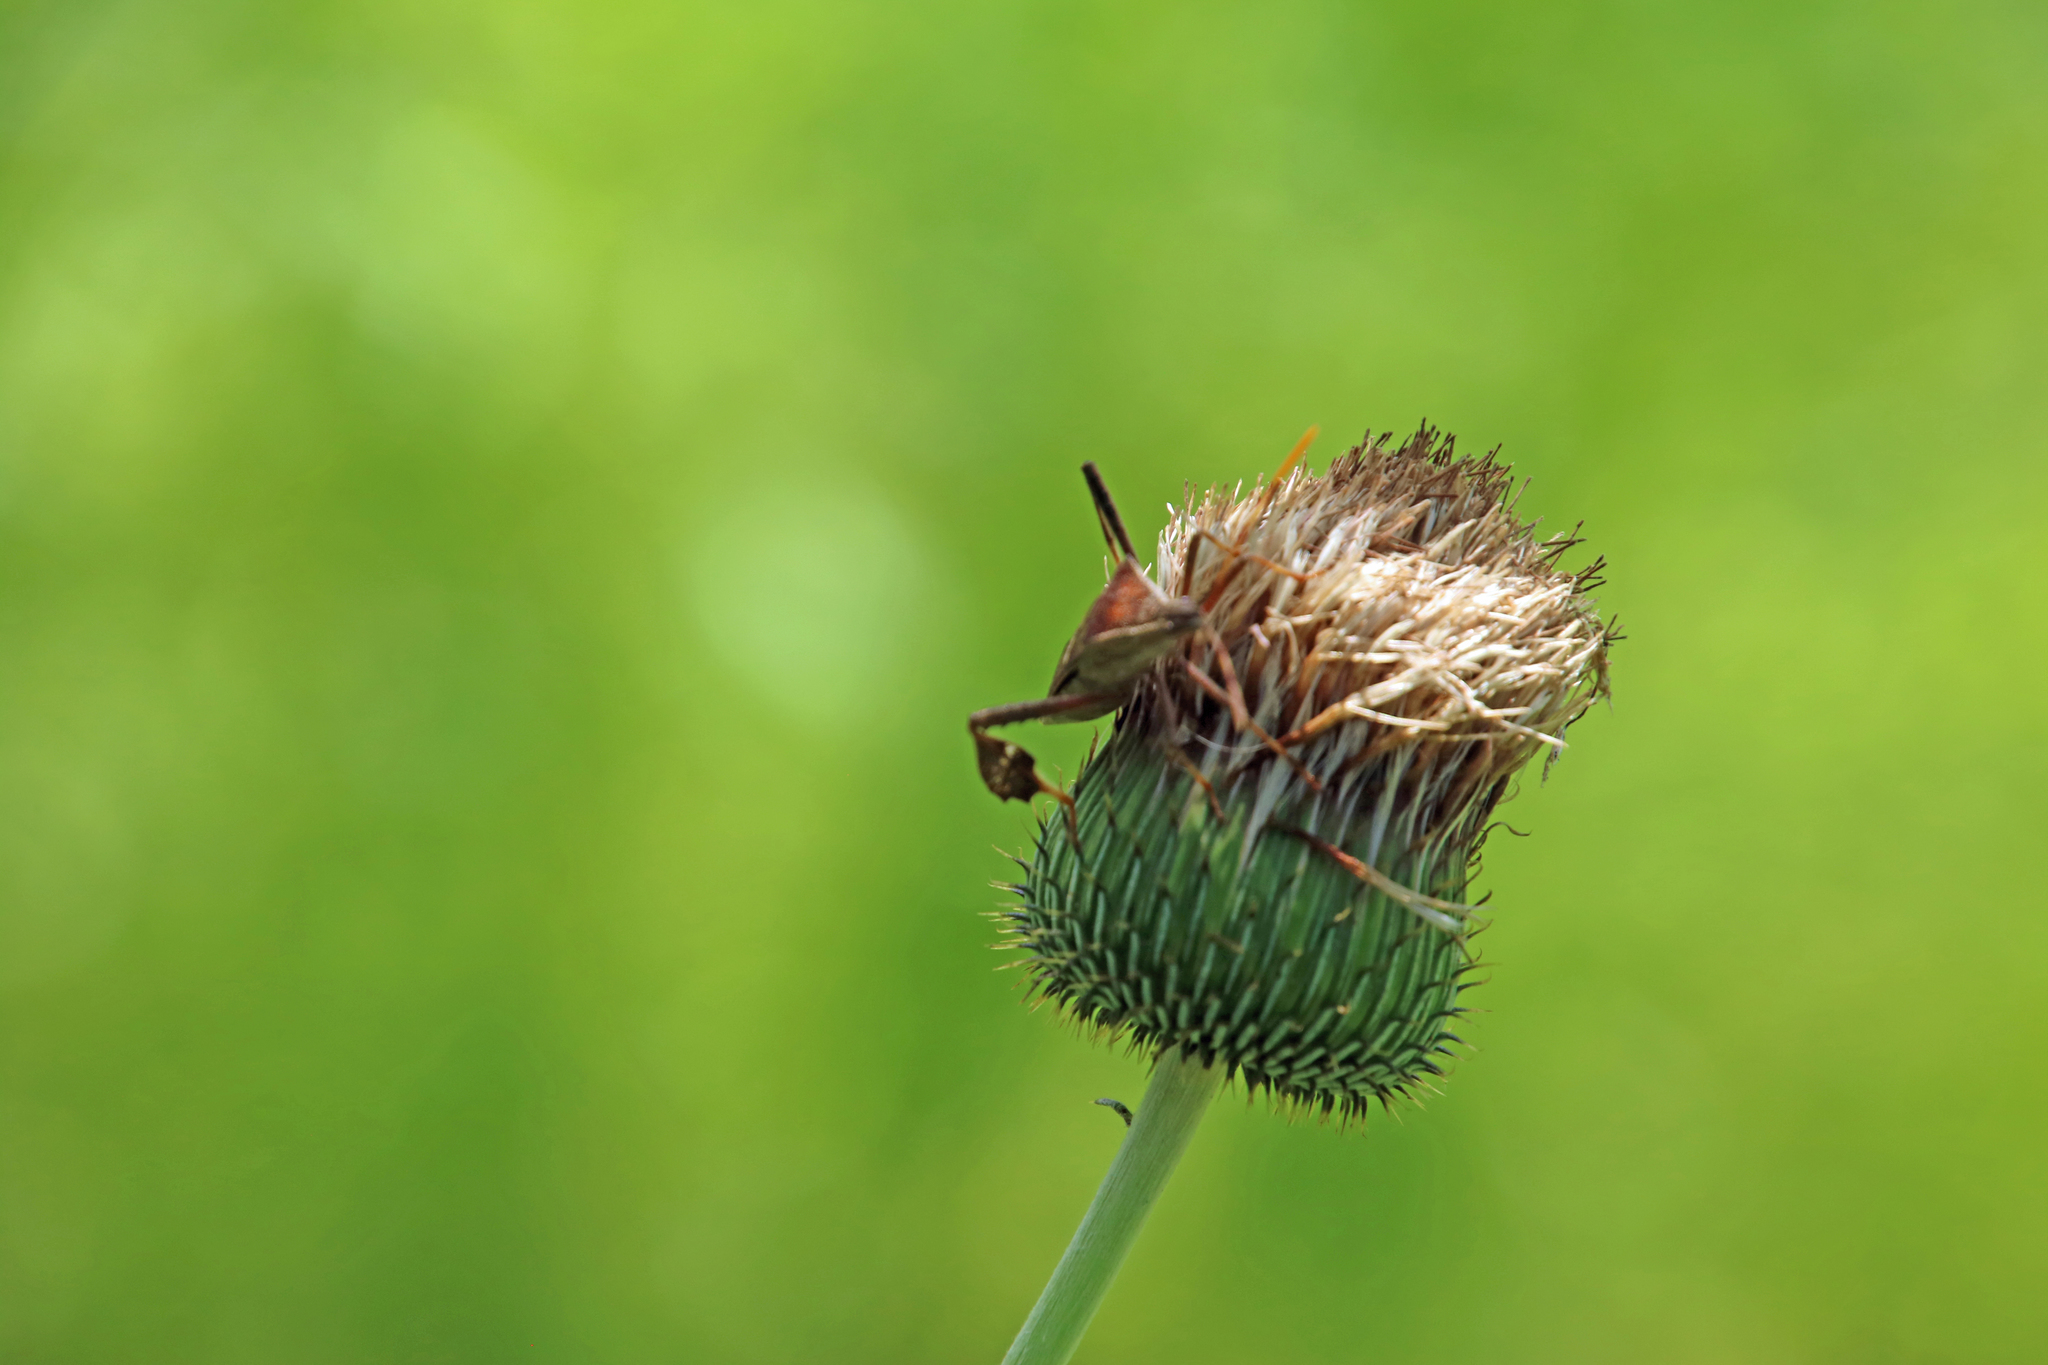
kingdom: Animalia
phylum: Arthropoda
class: Insecta
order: Hemiptera
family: Coreidae
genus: Leptoglossus
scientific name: Leptoglossus phyllopus
